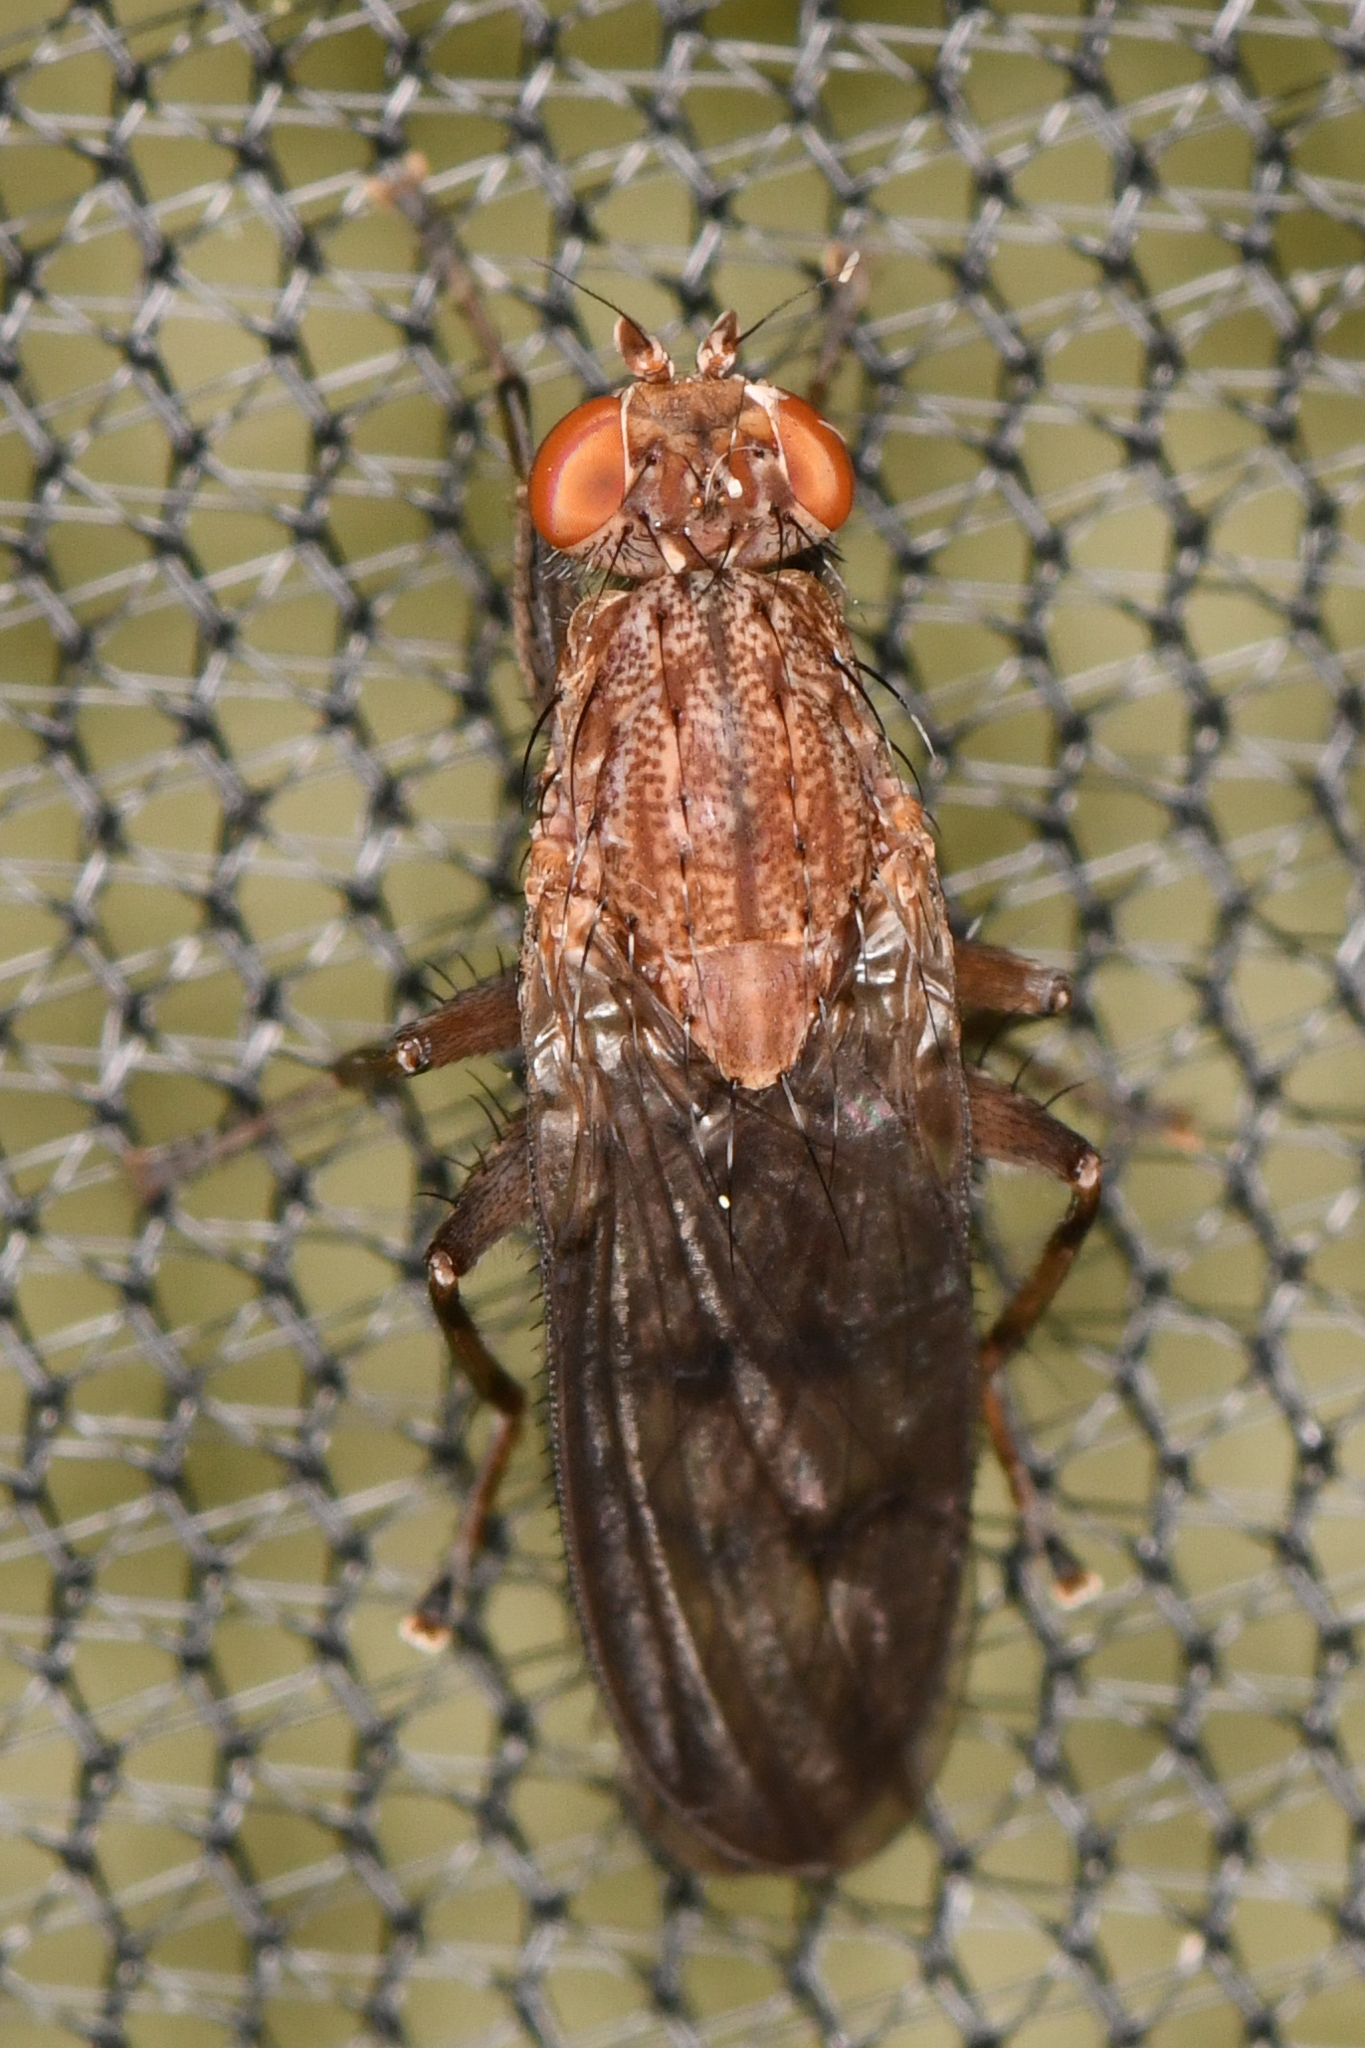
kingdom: Animalia
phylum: Arthropoda
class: Insecta
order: Diptera
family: Heleomyzidae
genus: Suillia
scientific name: Suillia barberi
